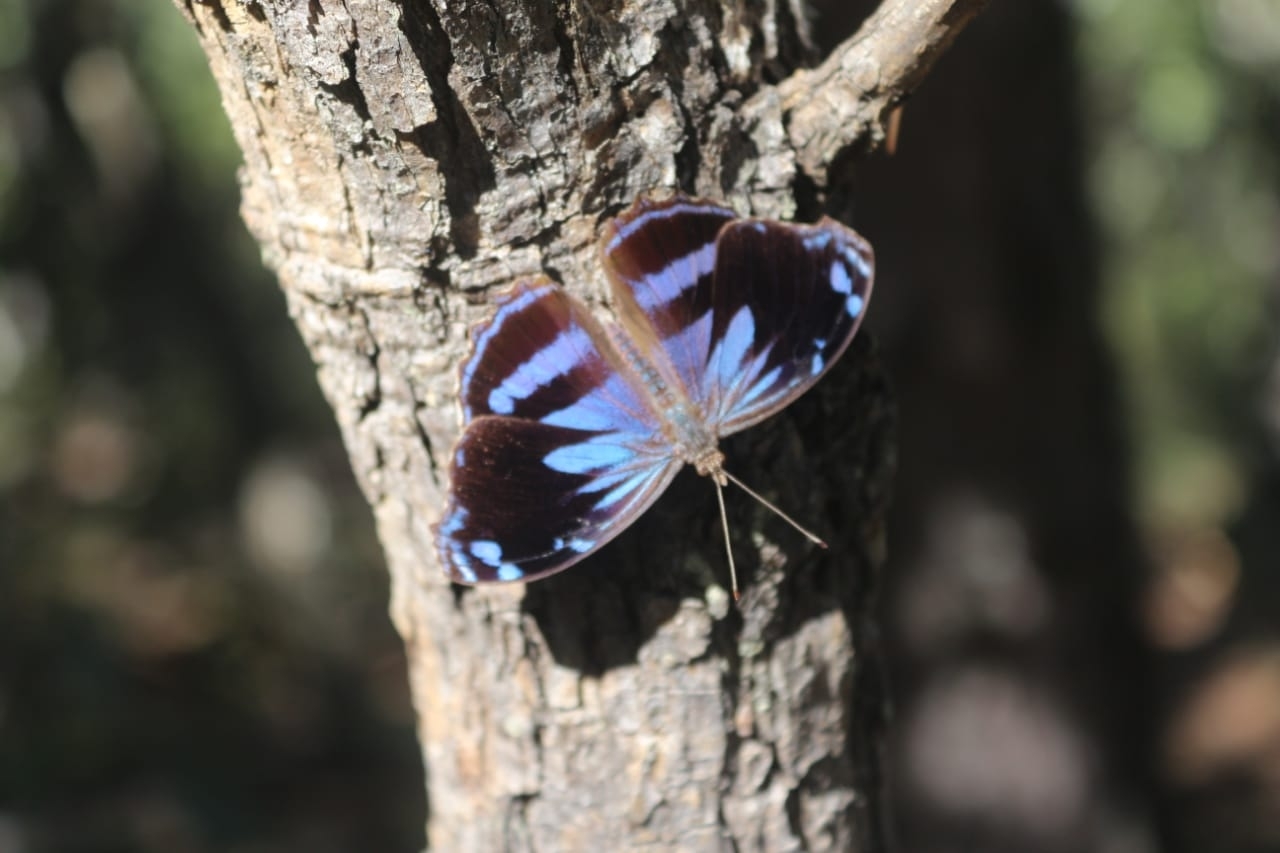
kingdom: Animalia
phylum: Arthropoda
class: Insecta
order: Lepidoptera
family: Nymphalidae
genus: Myscelia
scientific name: Myscelia cyananthe
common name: Blackened bluewing
